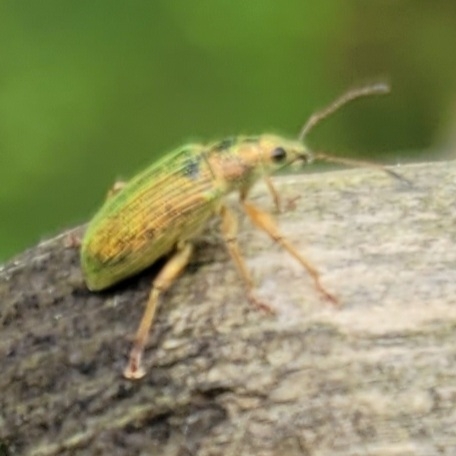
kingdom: Animalia
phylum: Arthropoda
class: Insecta
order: Coleoptera
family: Curculionidae
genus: Polydrusus
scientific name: Polydrusus formosus
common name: Weevil
